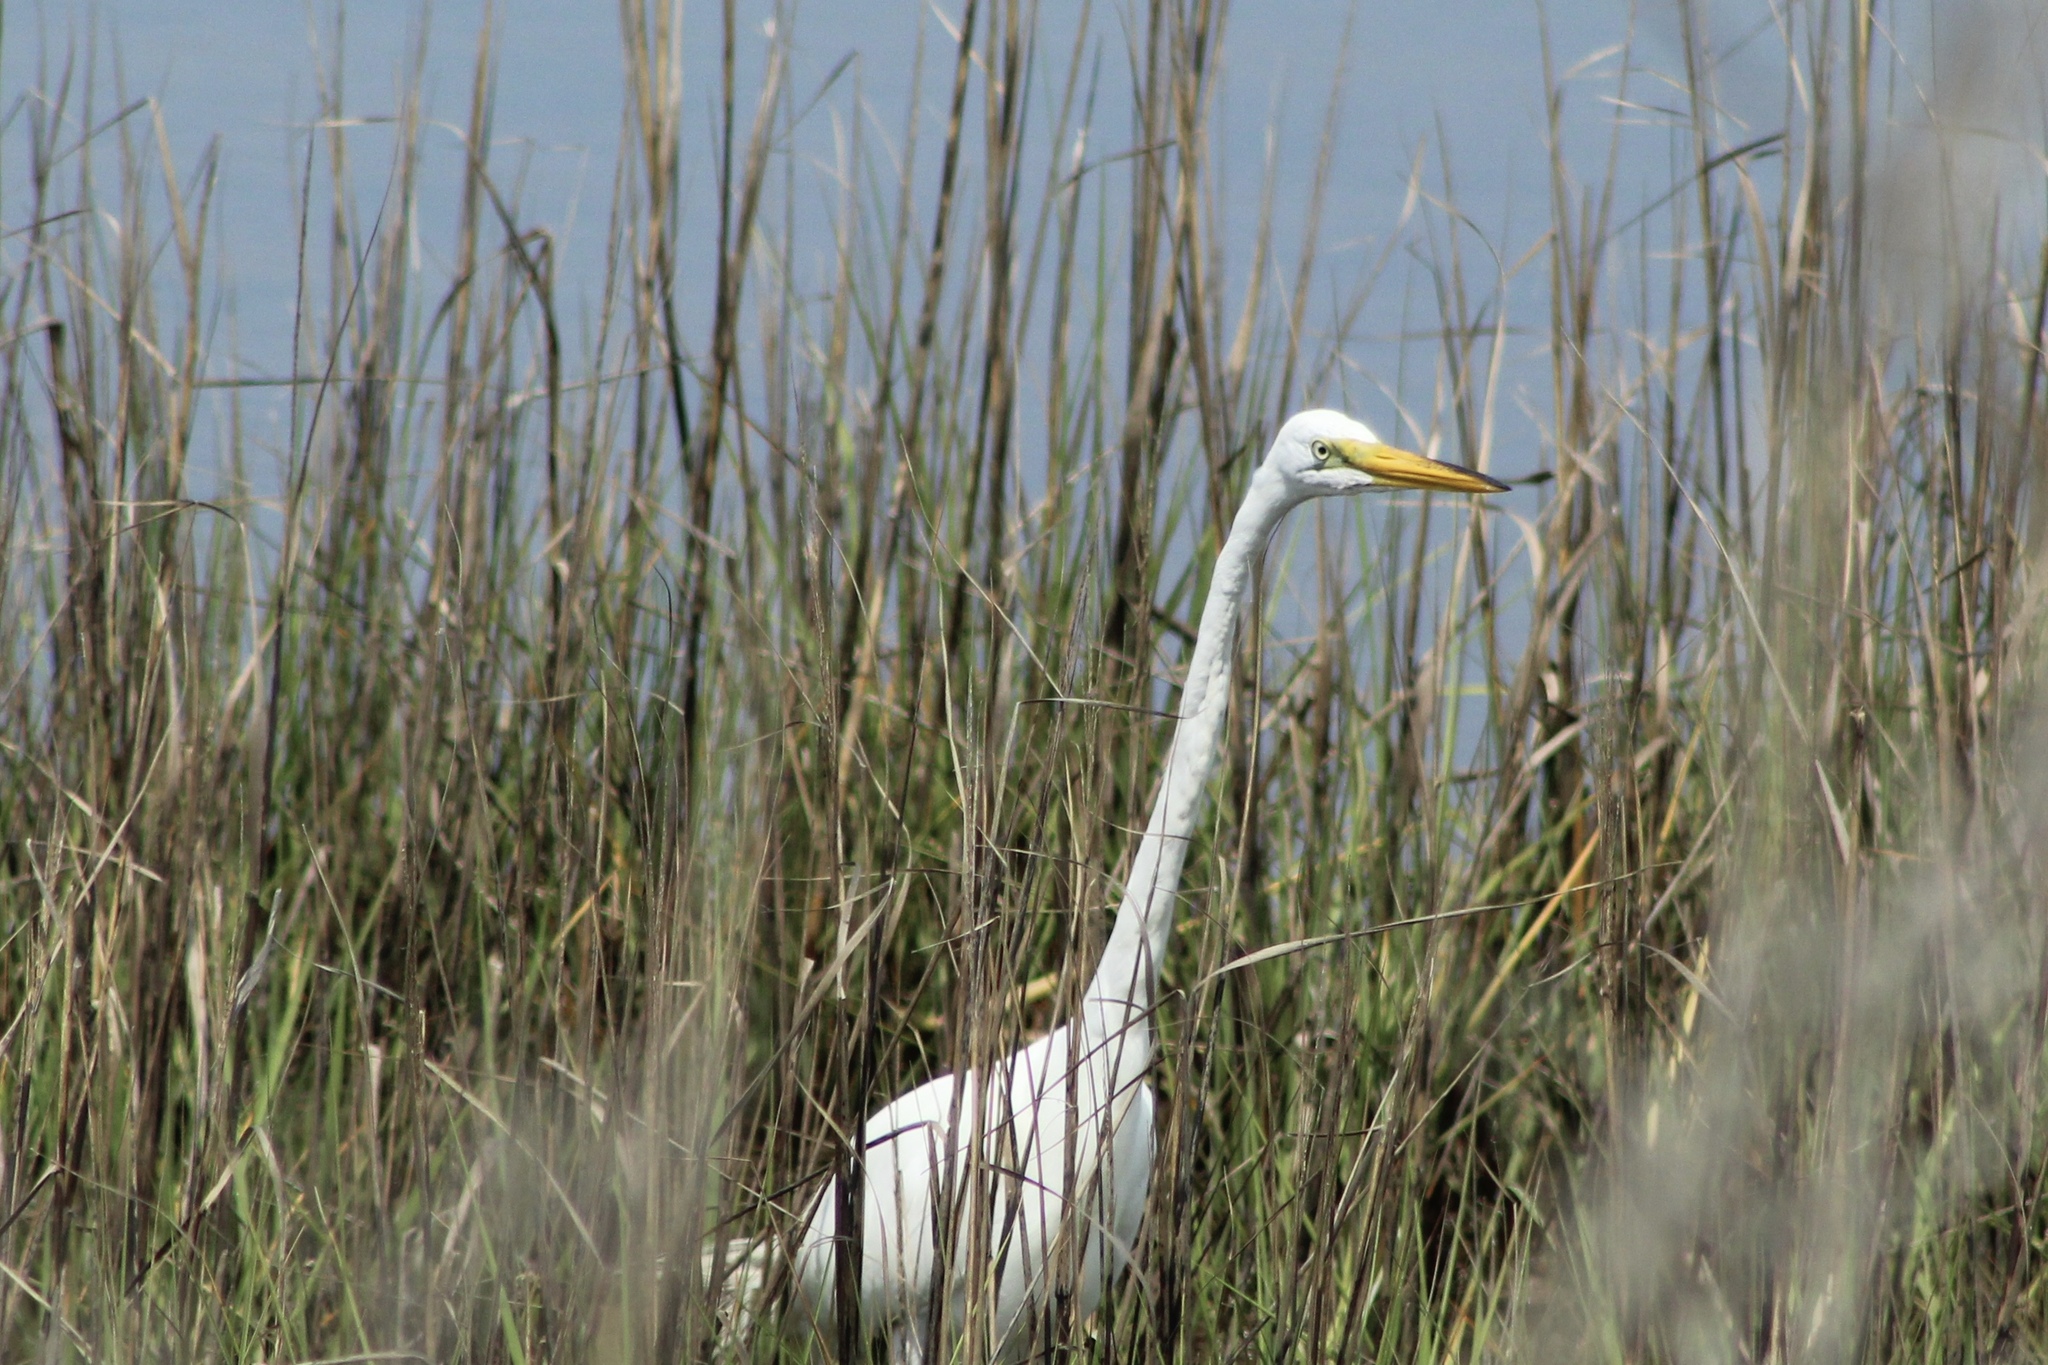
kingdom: Animalia
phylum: Chordata
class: Aves
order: Pelecaniformes
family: Ardeidae
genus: Ardea
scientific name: Ardea alba
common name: Great egret
